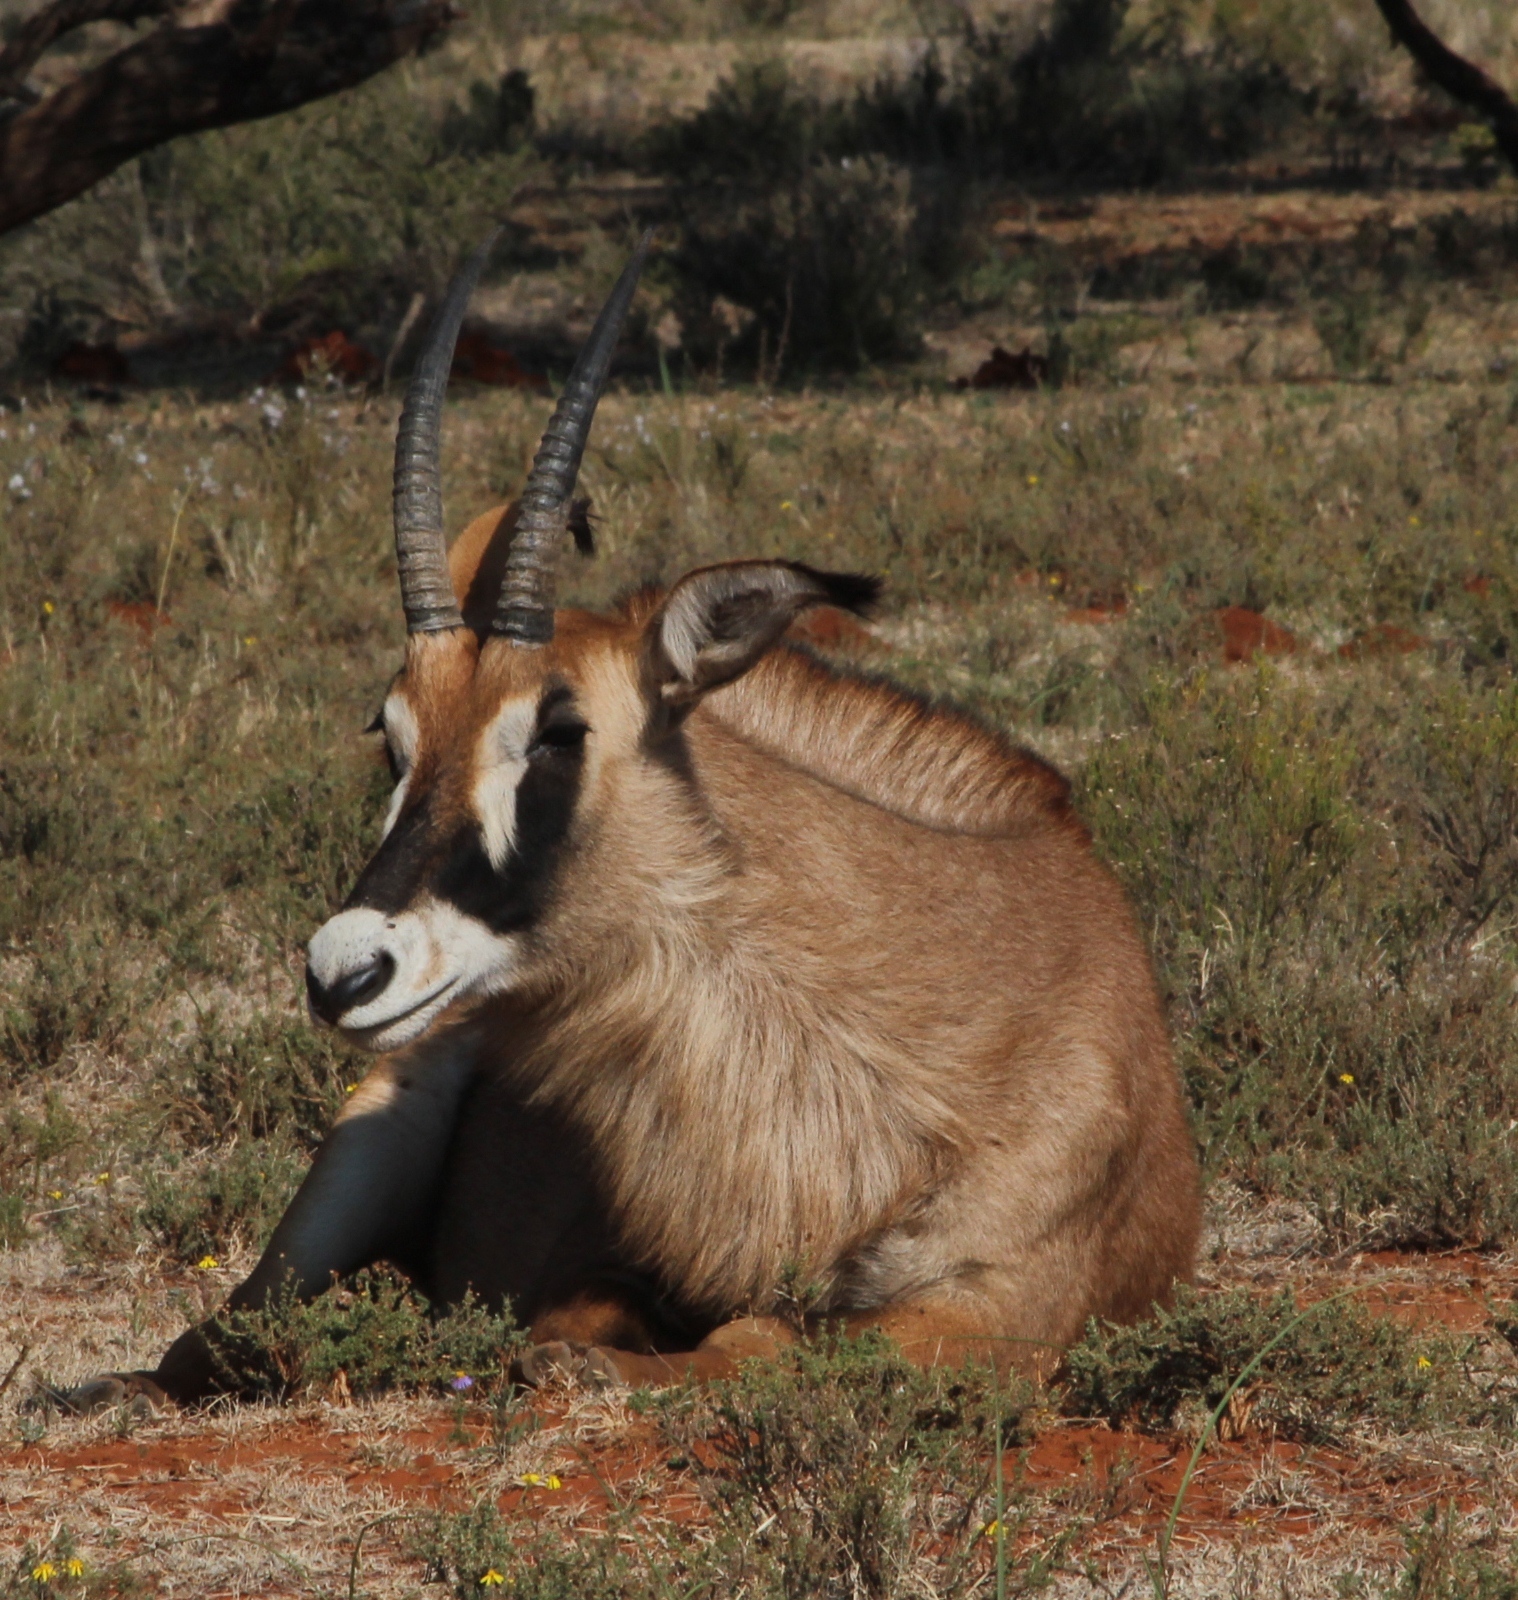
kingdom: Animalia
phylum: Chordata
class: Mammalia
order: Artiodactyla
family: Bovidae
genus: Hippotragus
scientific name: Hippotragus equinus
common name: Roan antelope
